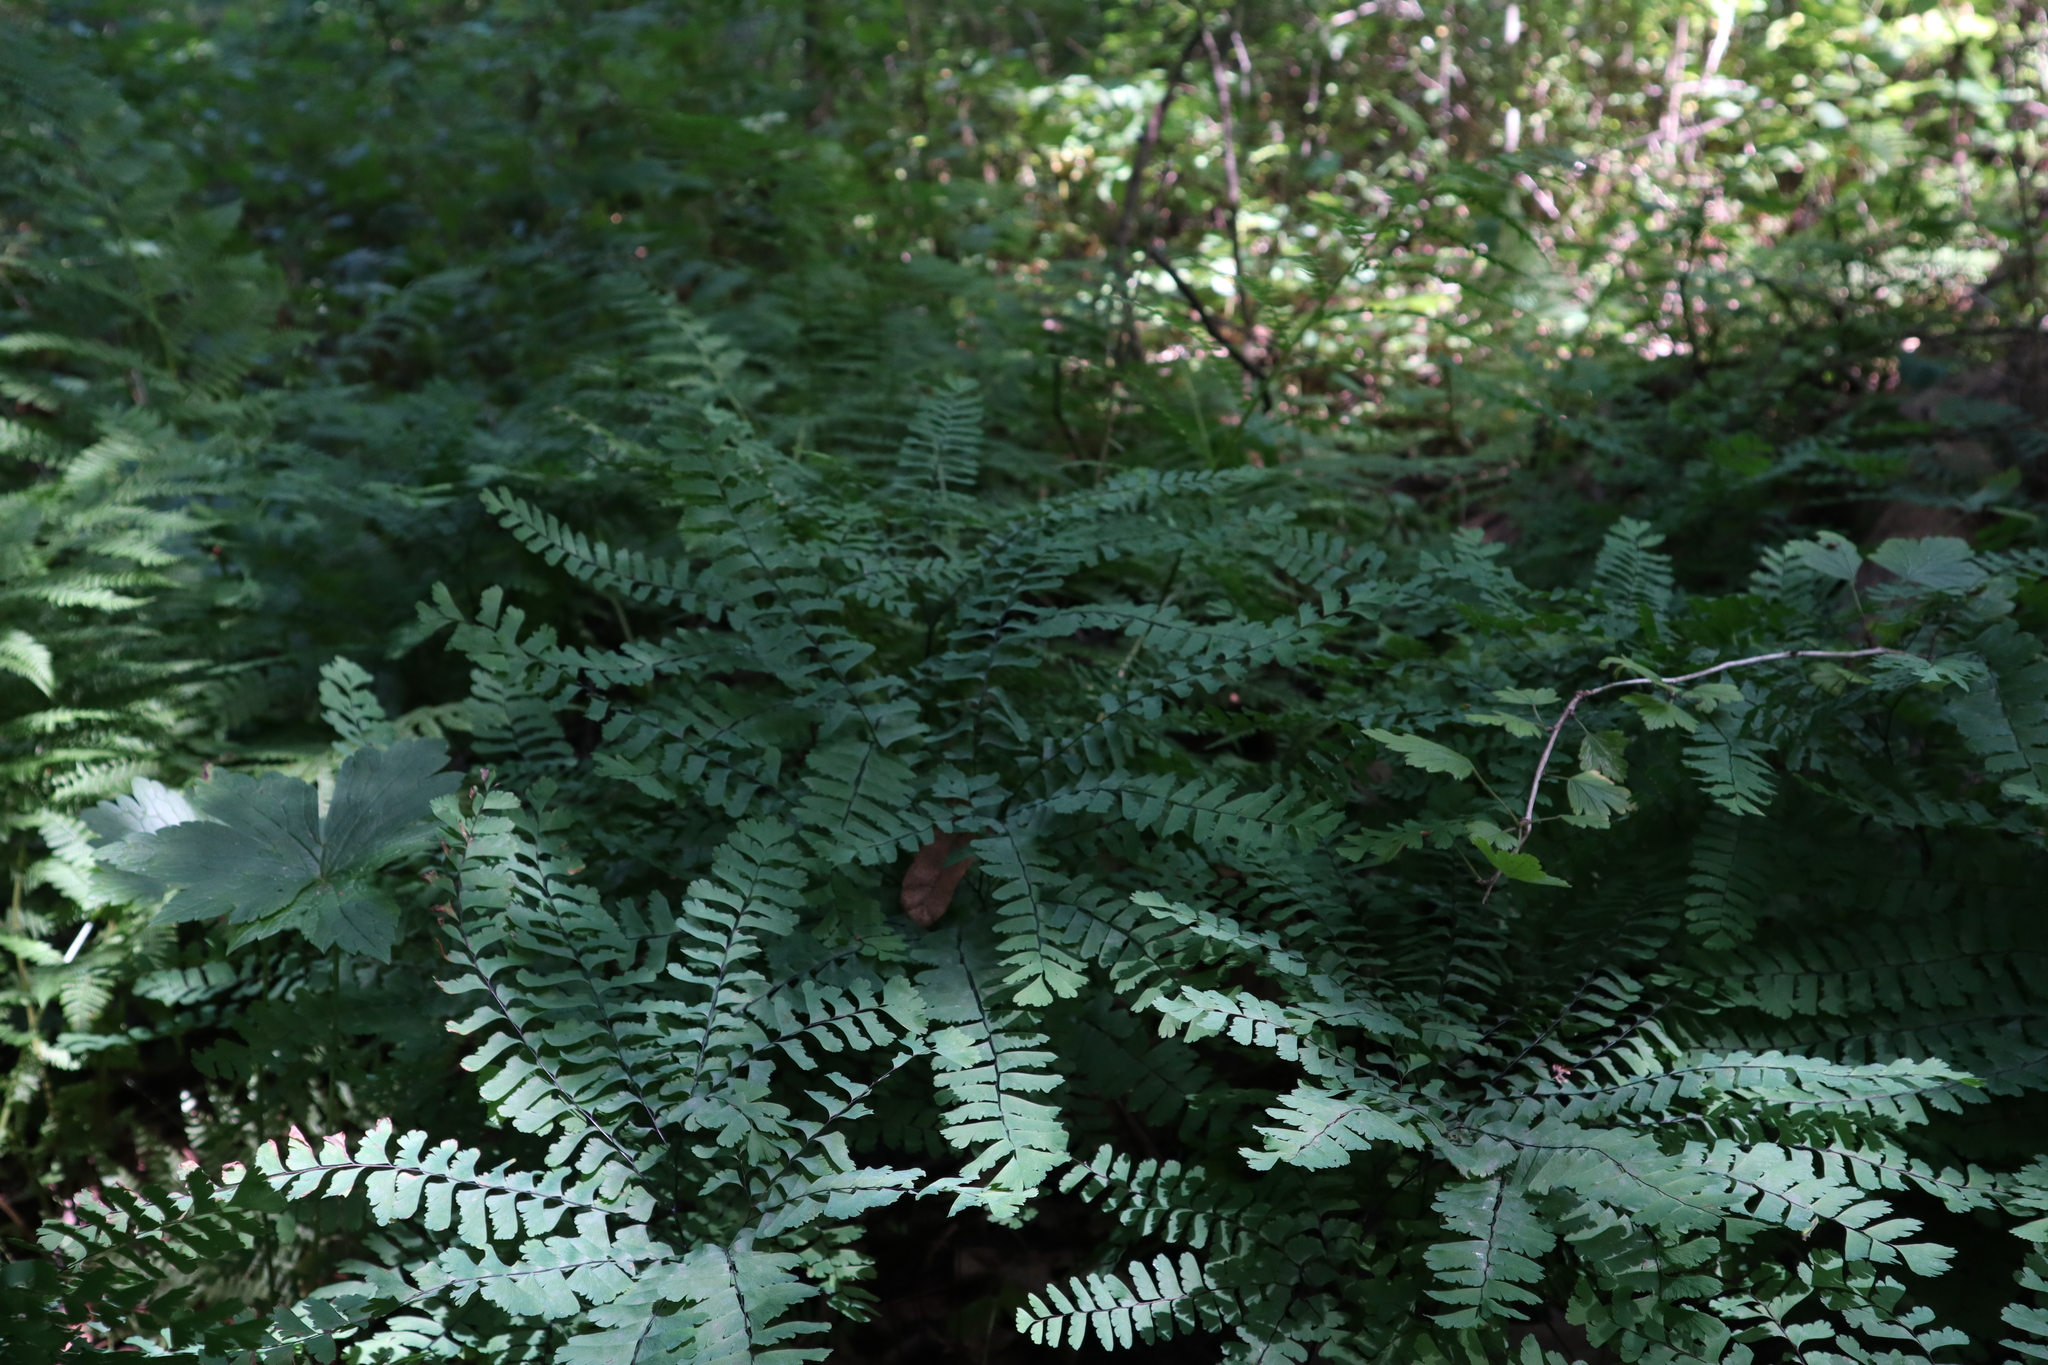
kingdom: Plantae
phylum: Tracheophyta
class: Polypodiopsida
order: Polypodiales
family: Pteridaceae
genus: Adiantum
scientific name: Adiantum pedatum
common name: Five-finger fern
